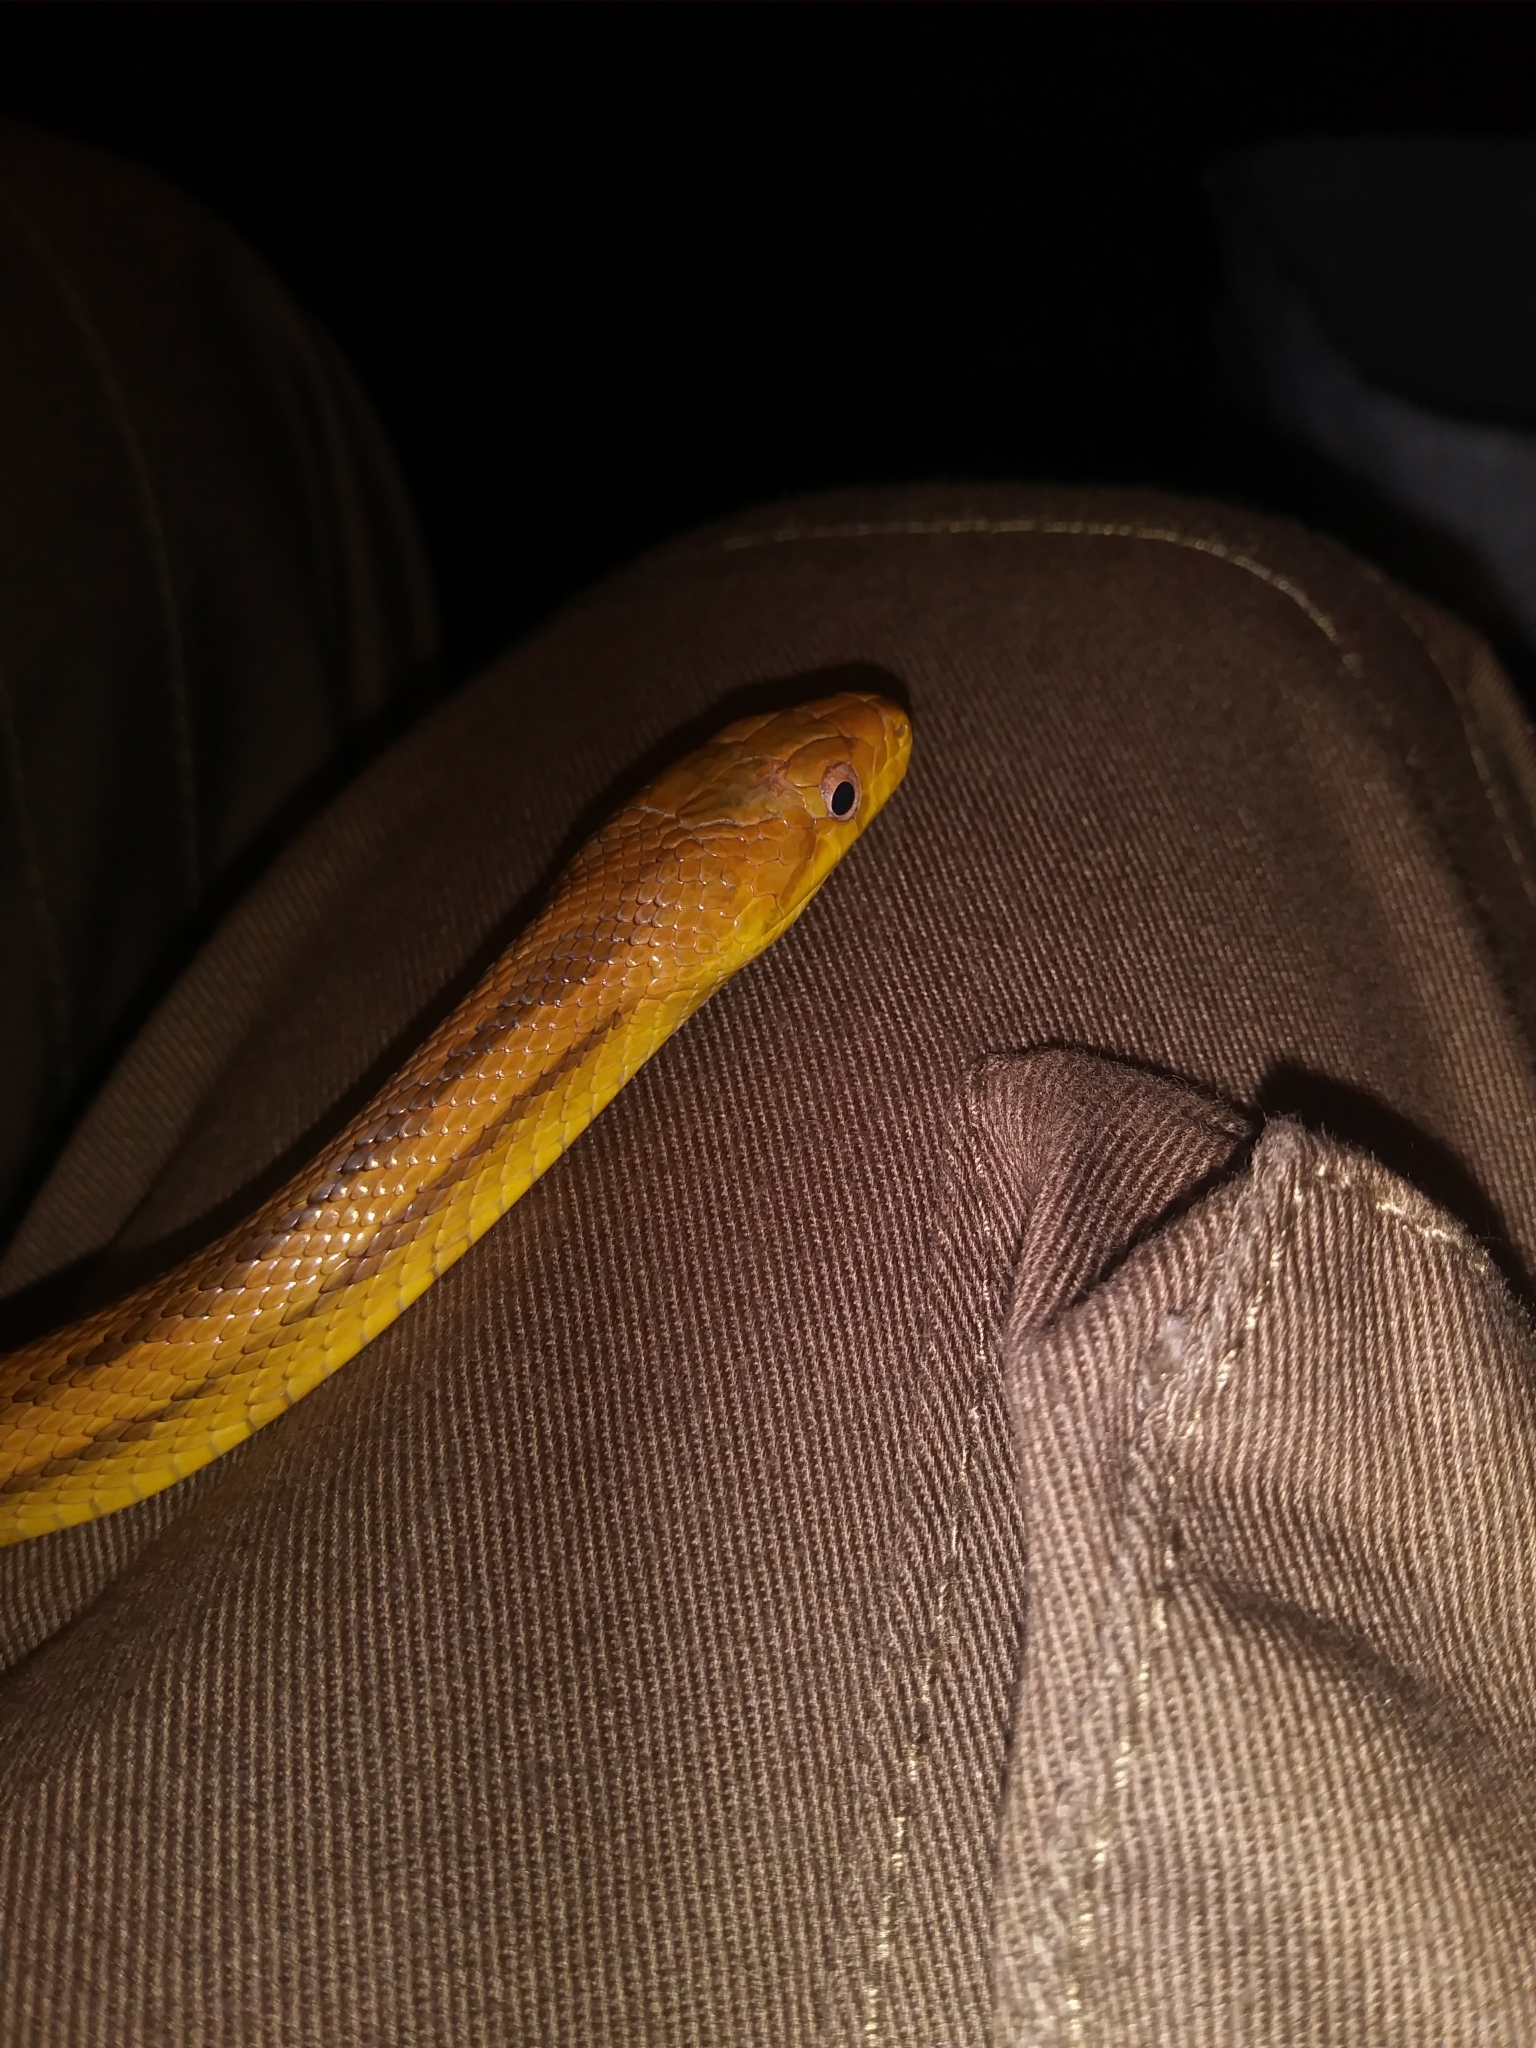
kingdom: Animalia
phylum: Chordata
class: Squamata
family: Colubridae
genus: Pantherophis
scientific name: Pantherophis alleghaniensis
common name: Eastern rat snake
